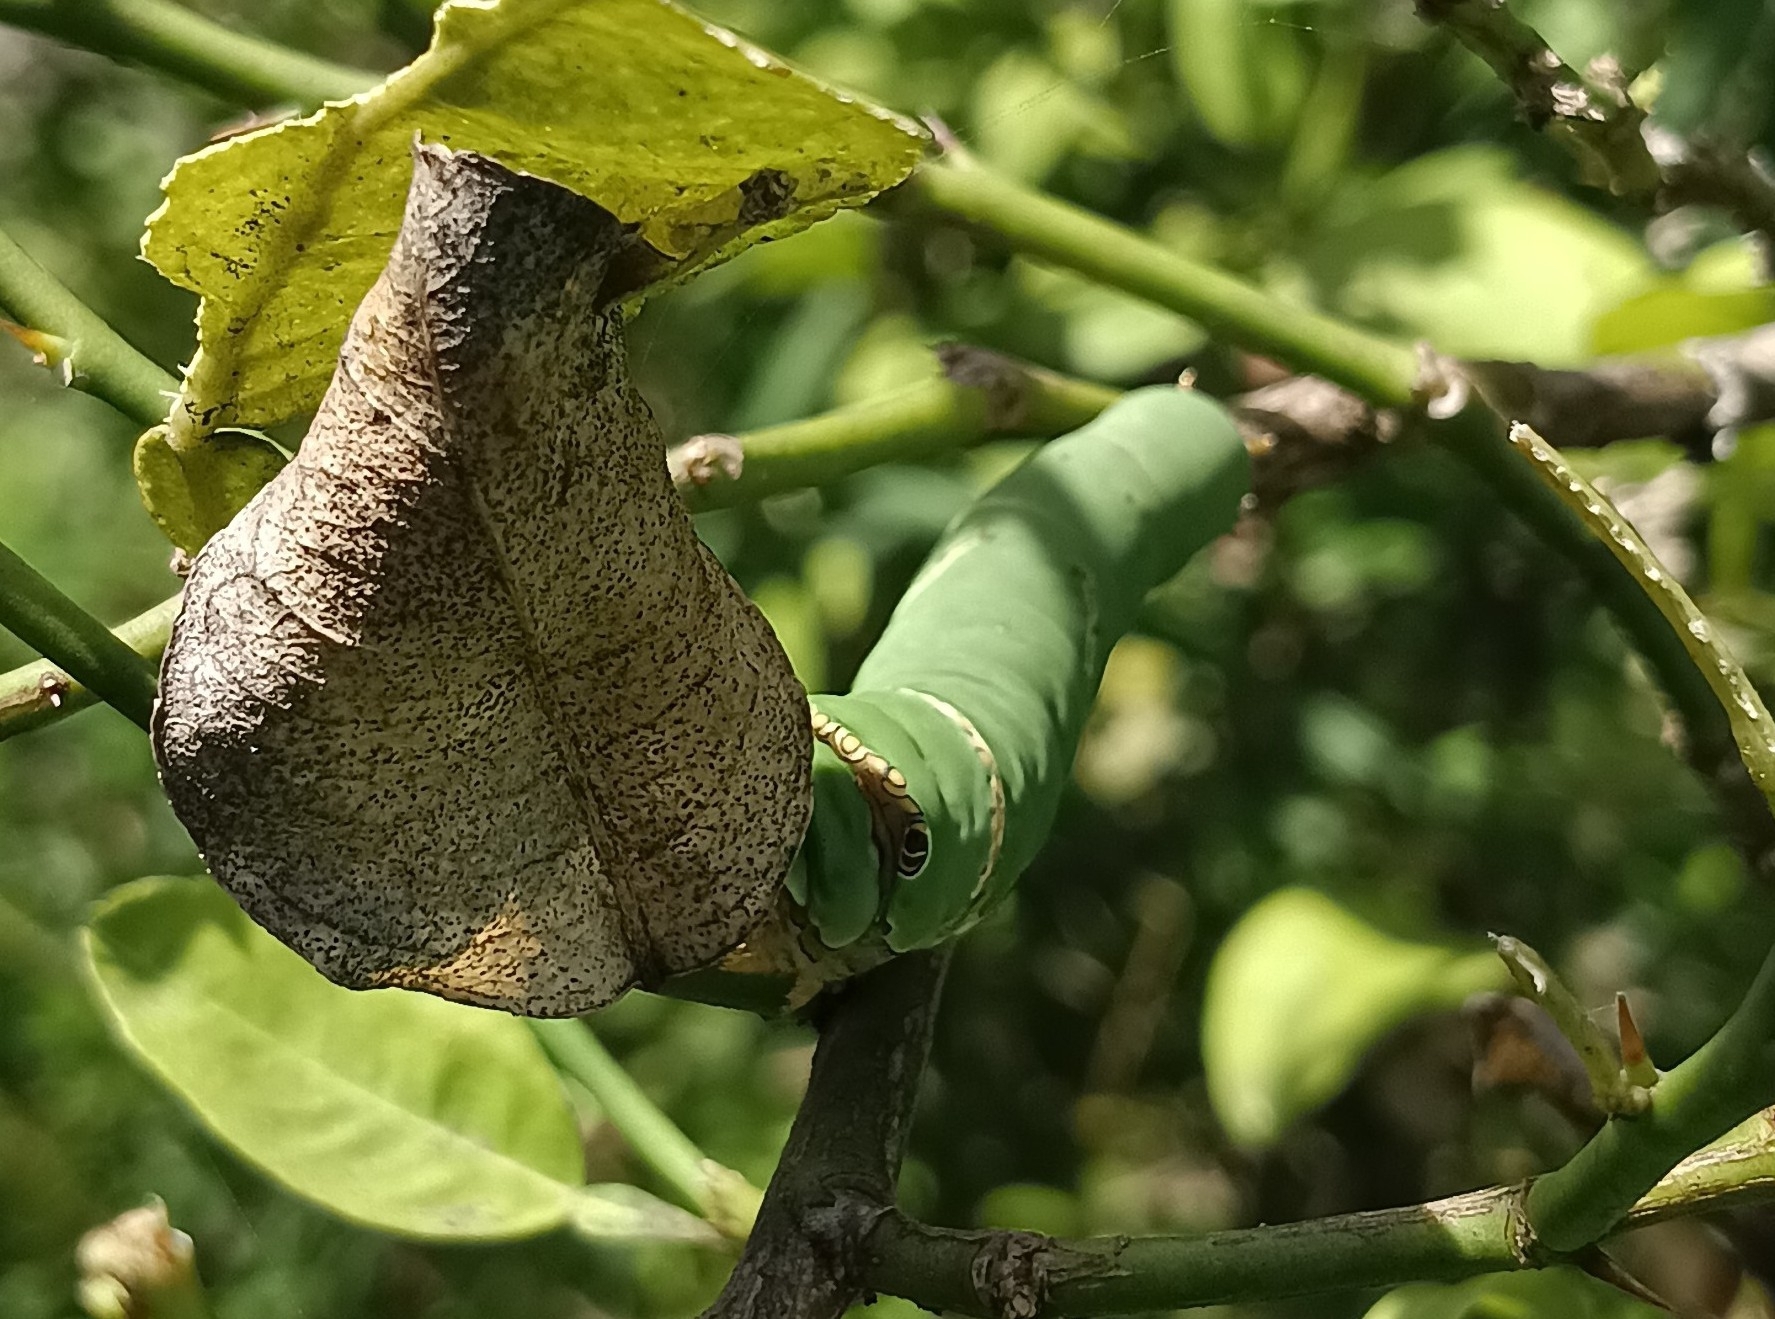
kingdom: Animalia
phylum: Arthropoda
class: Insecta
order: Lepidoptera
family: Papilionidae
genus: Papilio
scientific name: Papilio demoleus
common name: Lime butterfly
